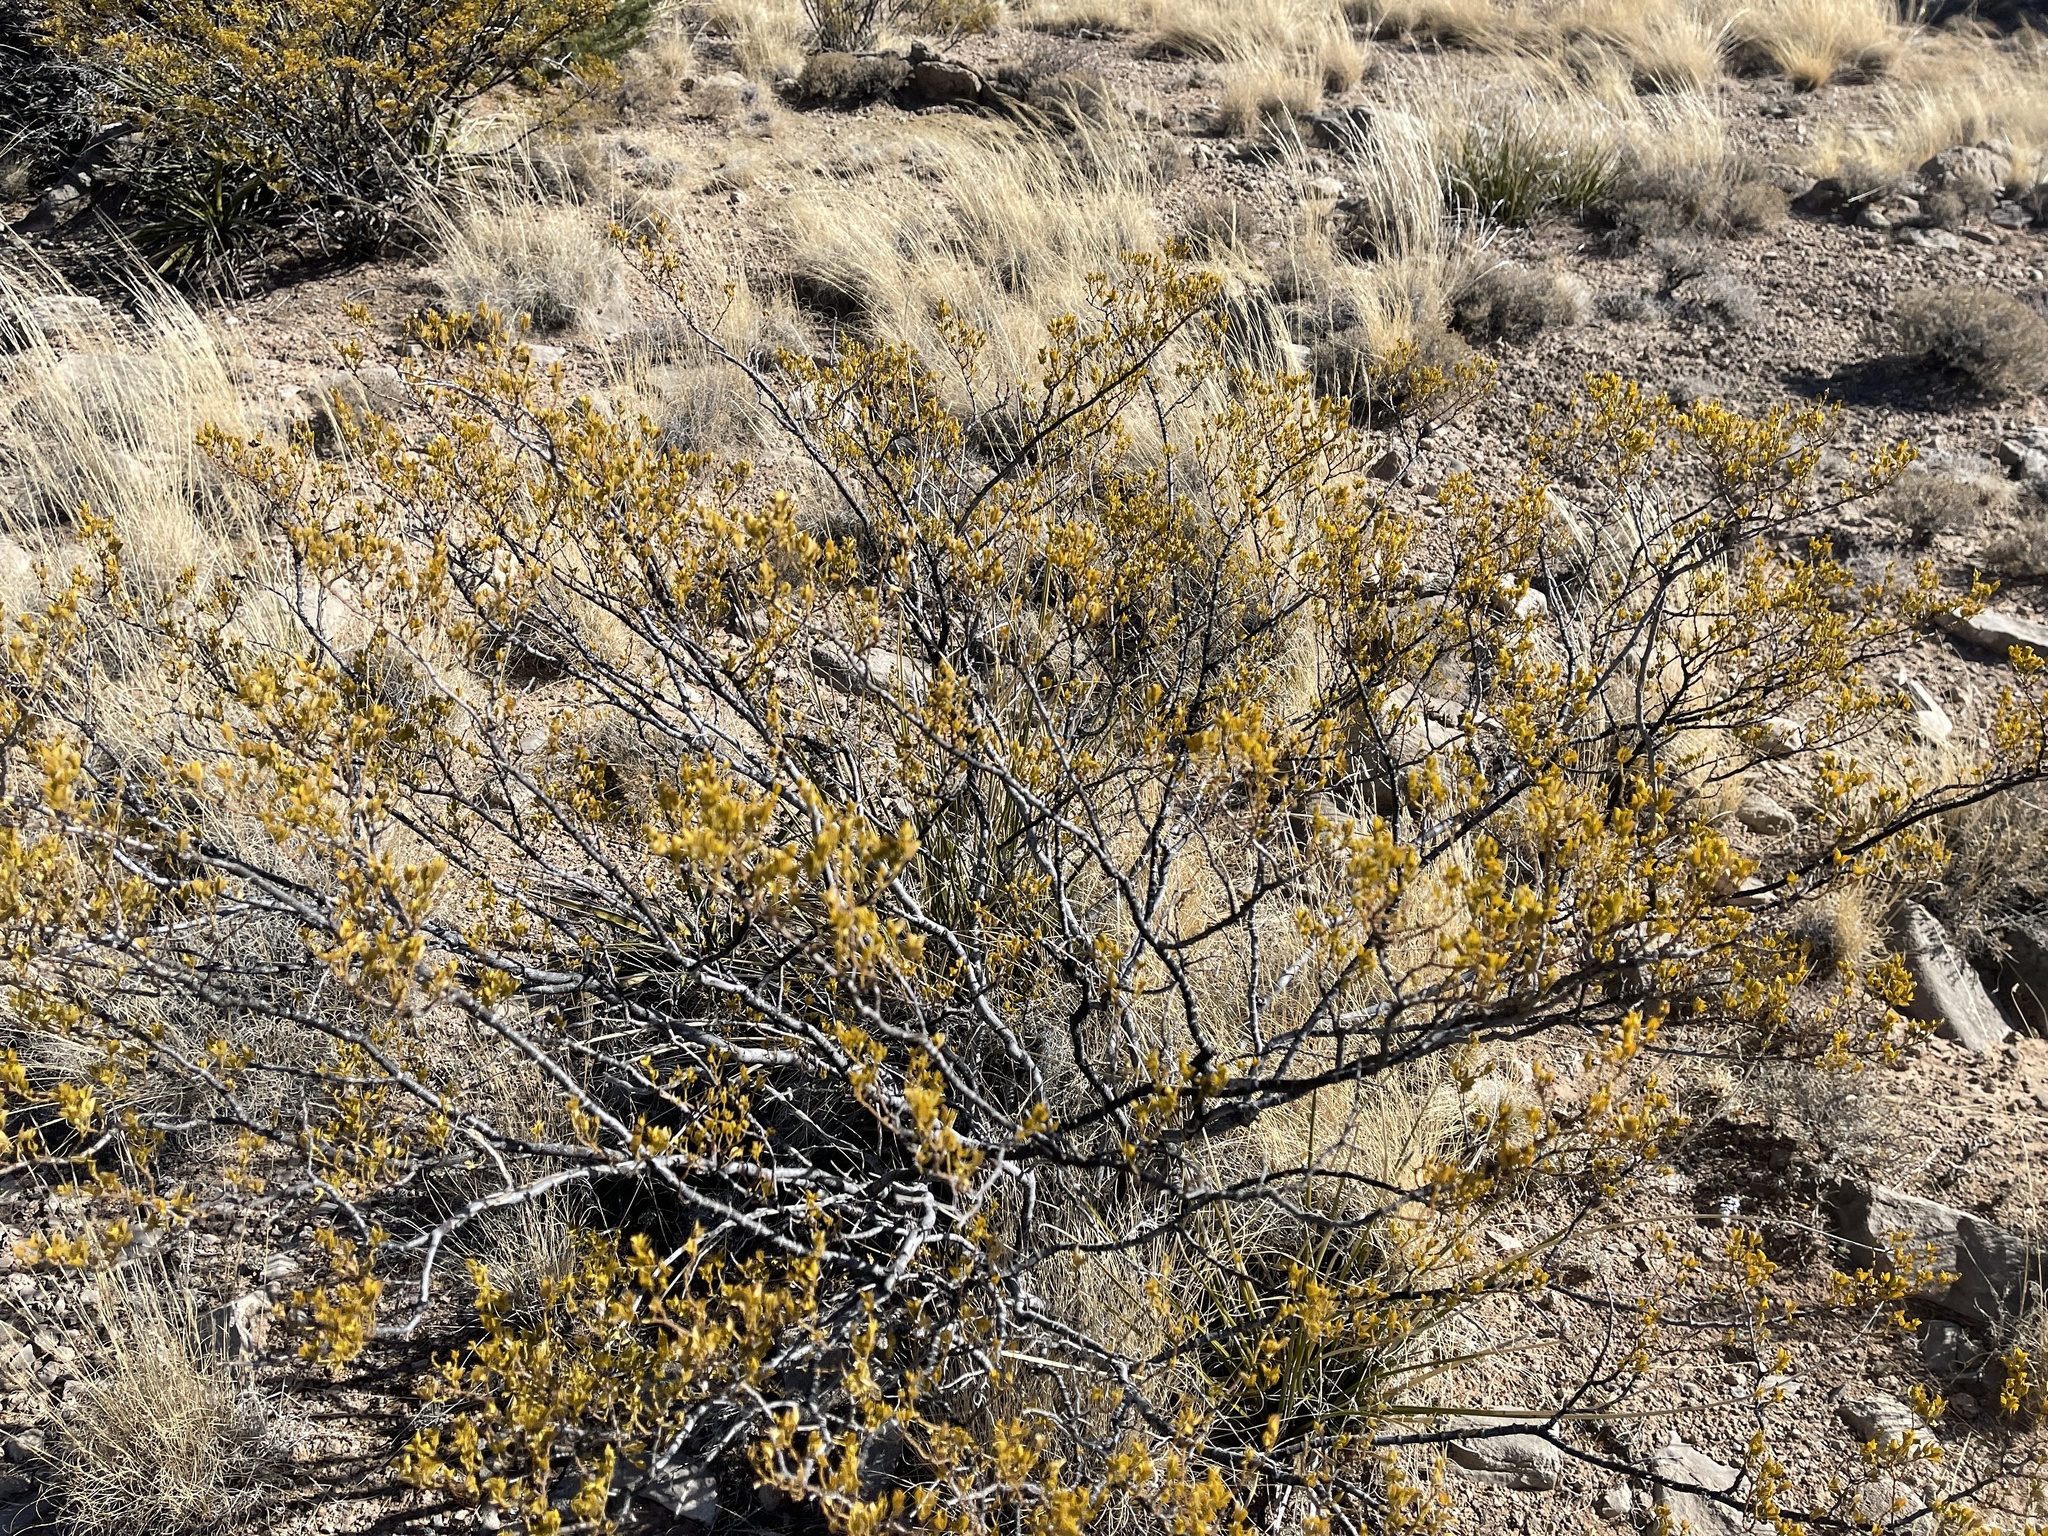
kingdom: Plantae
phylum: Tracheophyta
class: Magnoliopsida
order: Zygophyllales
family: Zygophyllaceae
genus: Larrea
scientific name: Larrea tridentata
